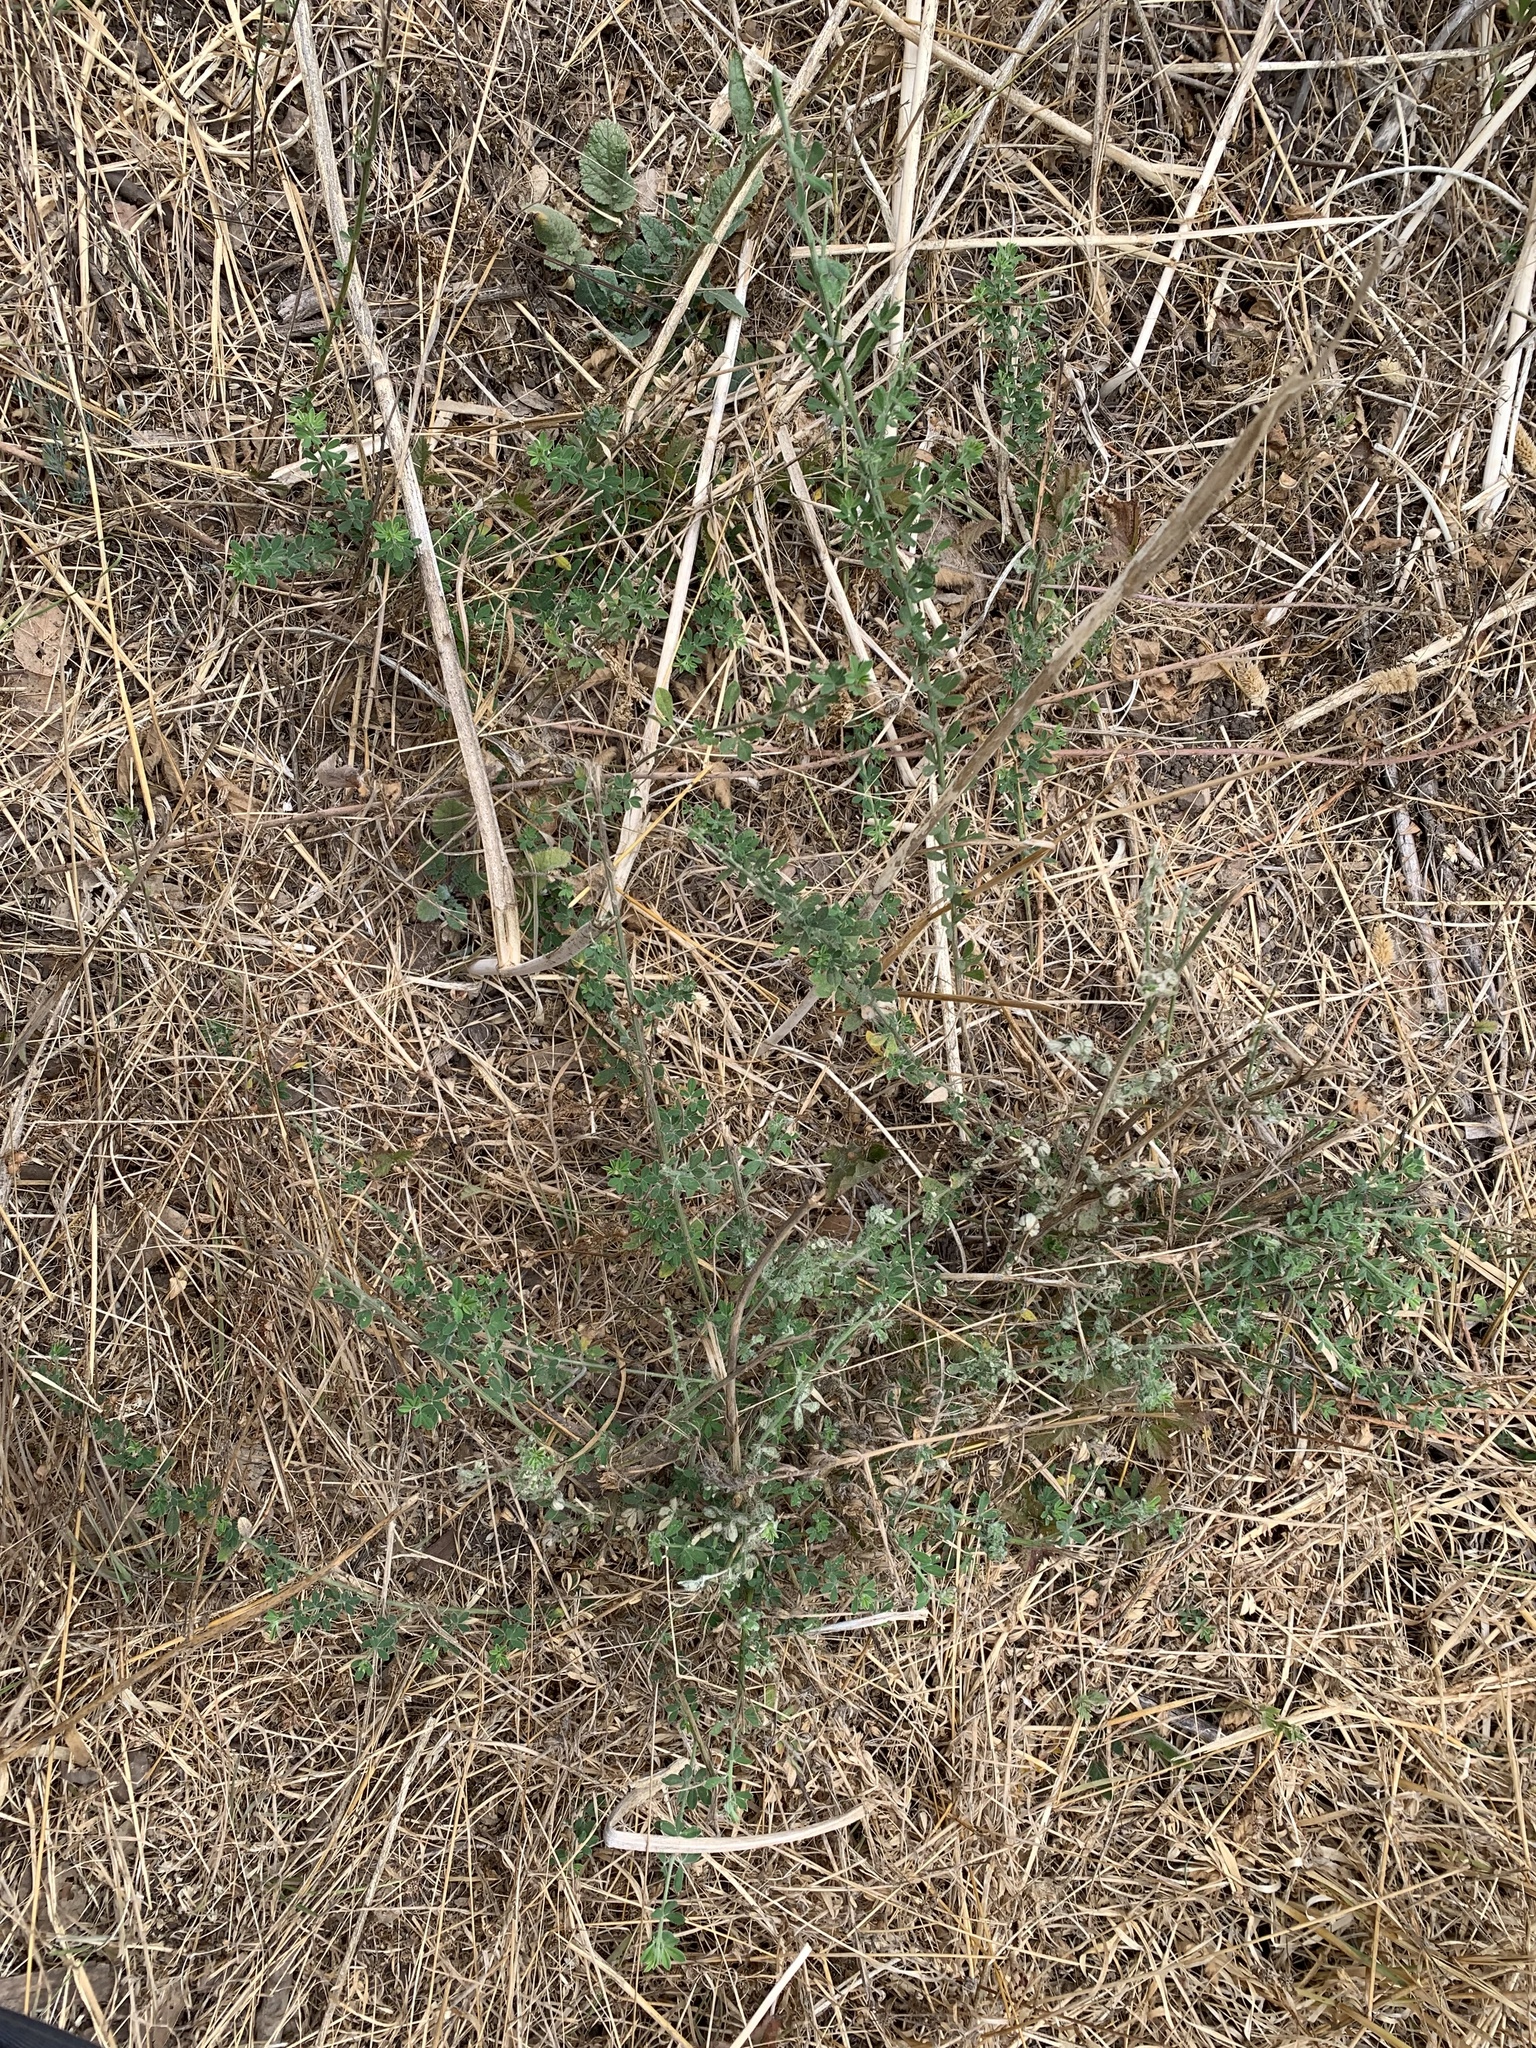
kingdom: Plantae
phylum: Tracheophyta
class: Magnoliopsida
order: Fabales
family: Fabaceae
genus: Genista
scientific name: Genista monspessulana
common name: Montpellier broom
